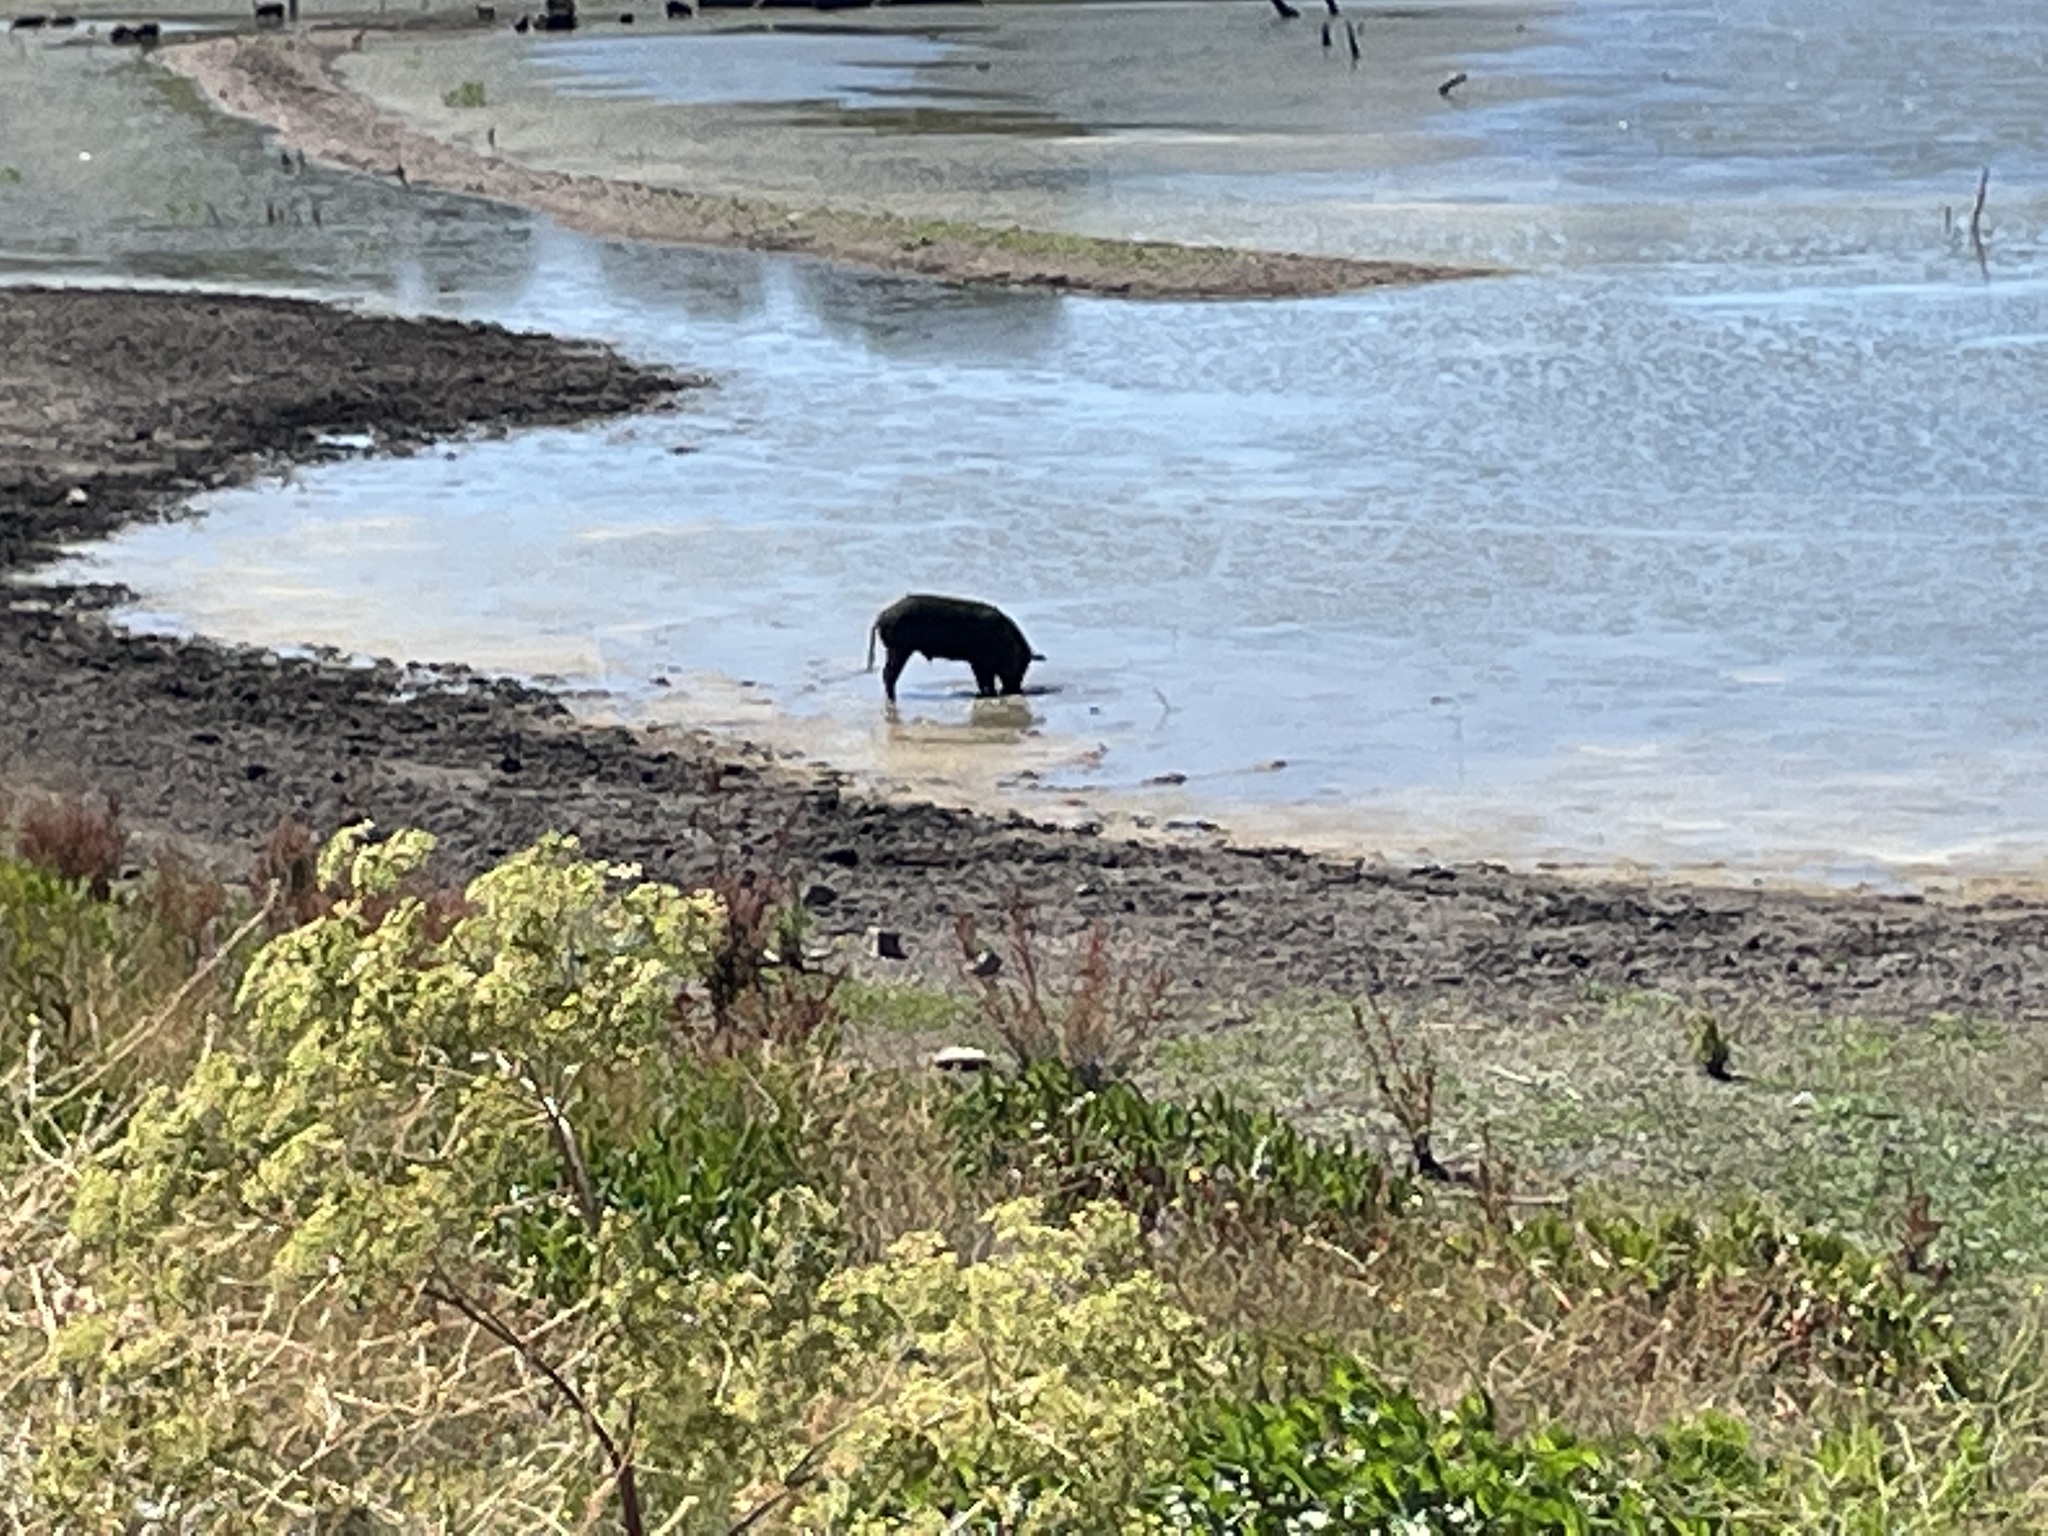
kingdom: Animalia
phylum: Chordata
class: Mammalia
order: Artiodactyla
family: Suidae
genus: Sus
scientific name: Sus scrofa
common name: Wild boar
